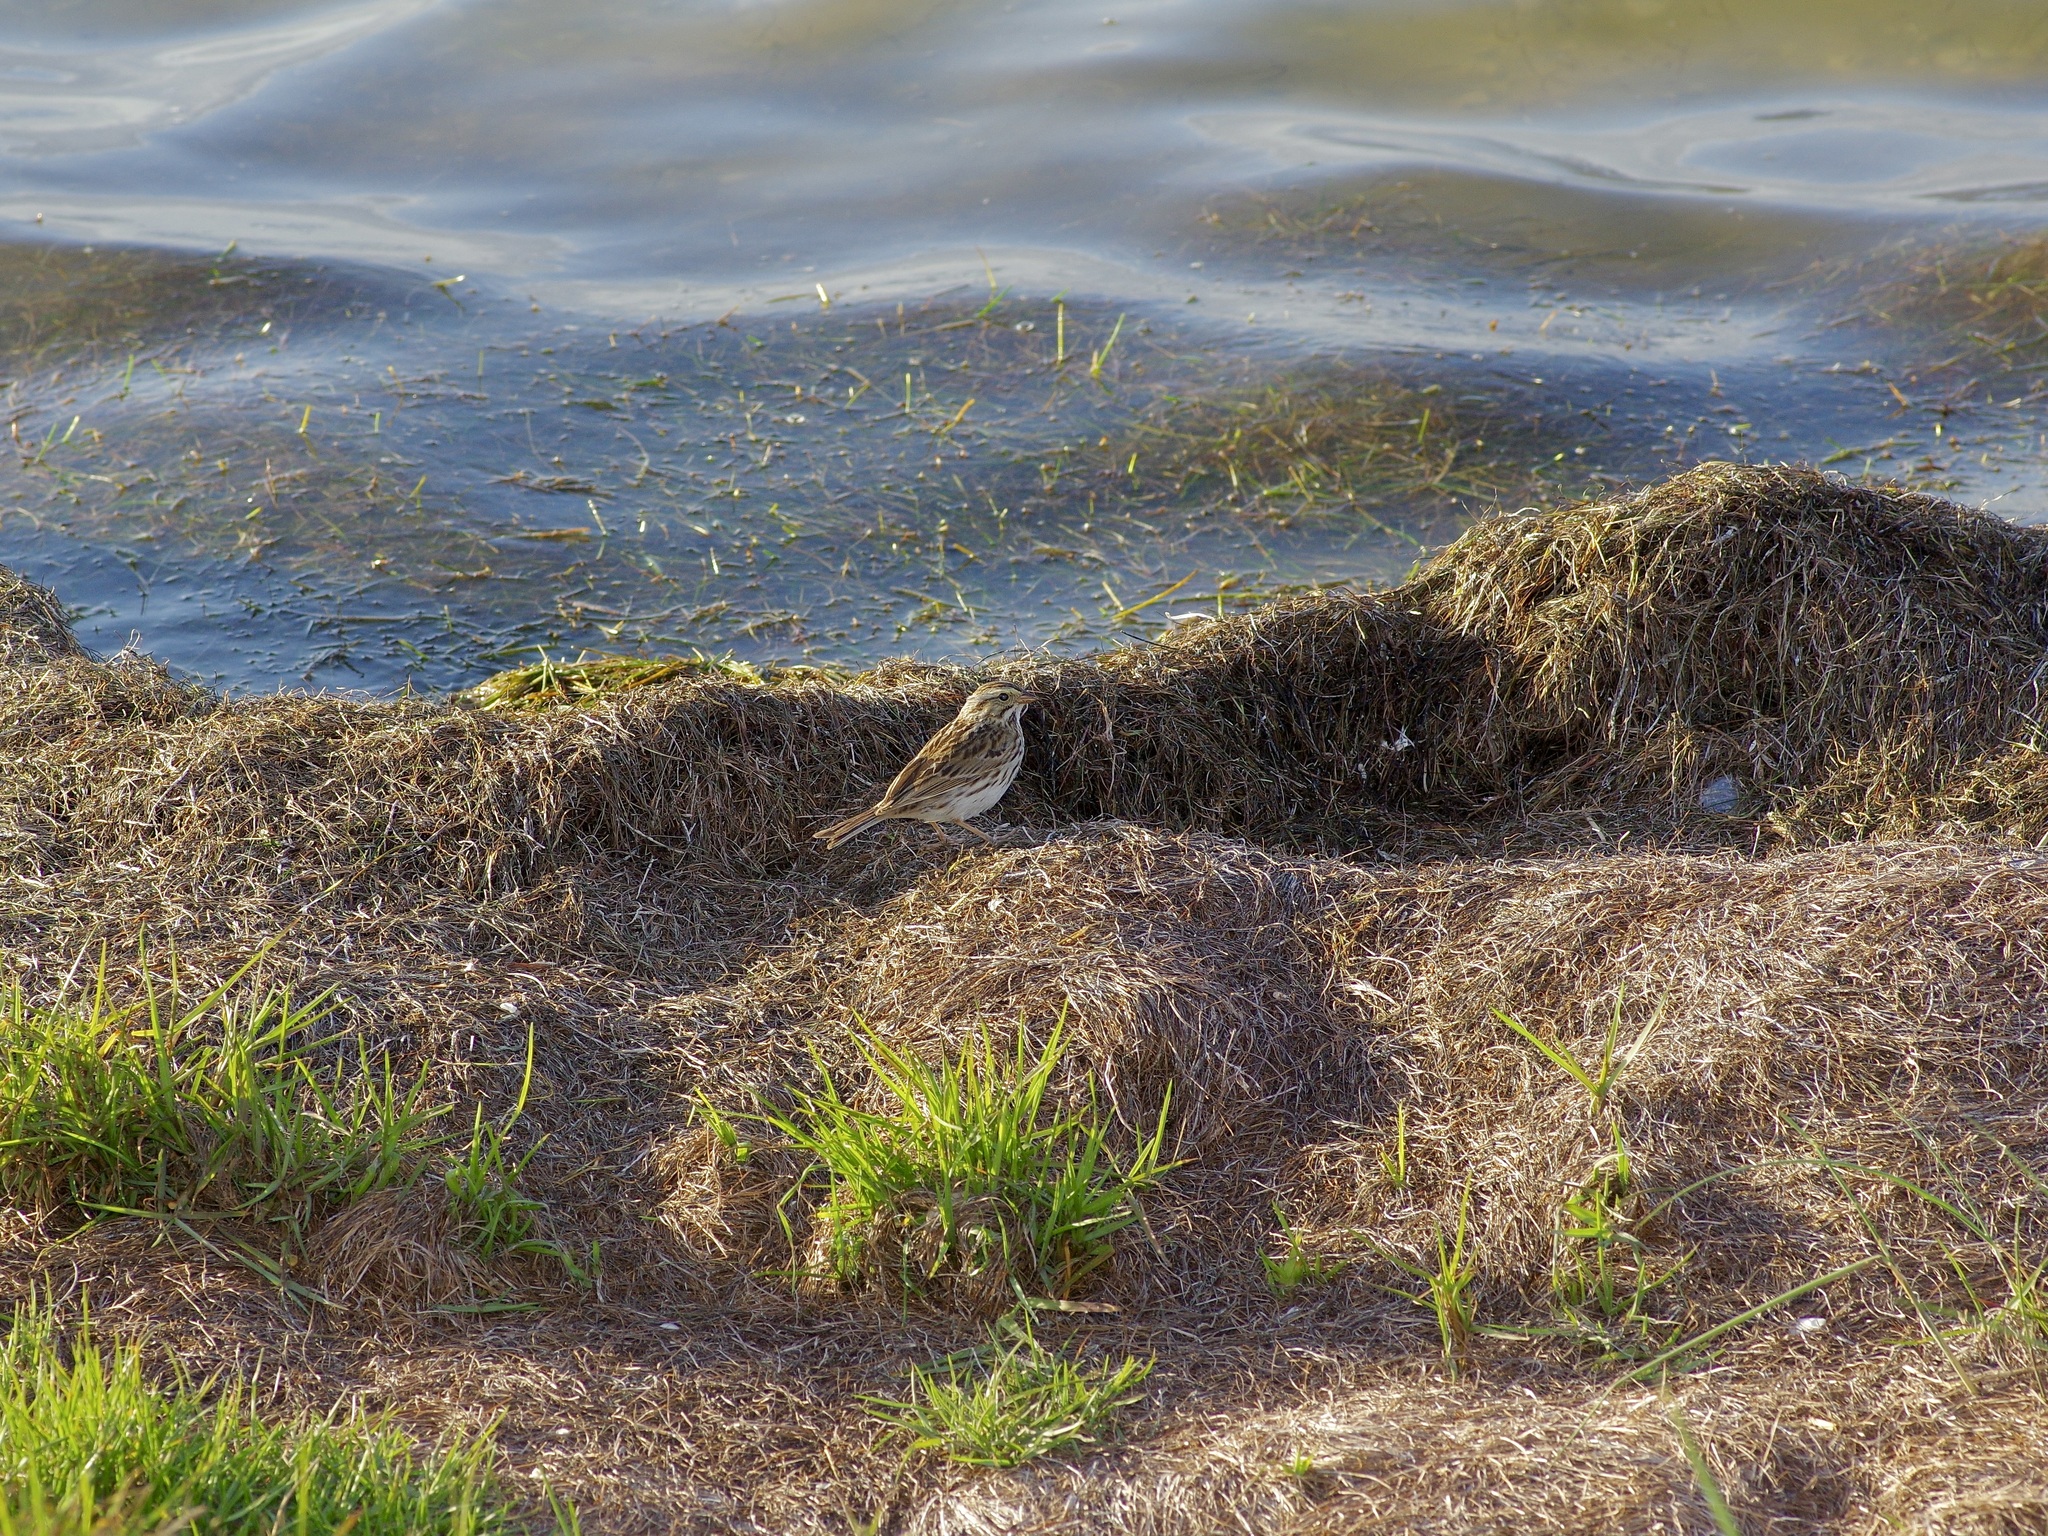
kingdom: Animalia
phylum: Chordata
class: Aves
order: Passeriformes
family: Passerellidae
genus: Passerculus
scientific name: Passerculus sandwichensis
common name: Savannah sparrow
